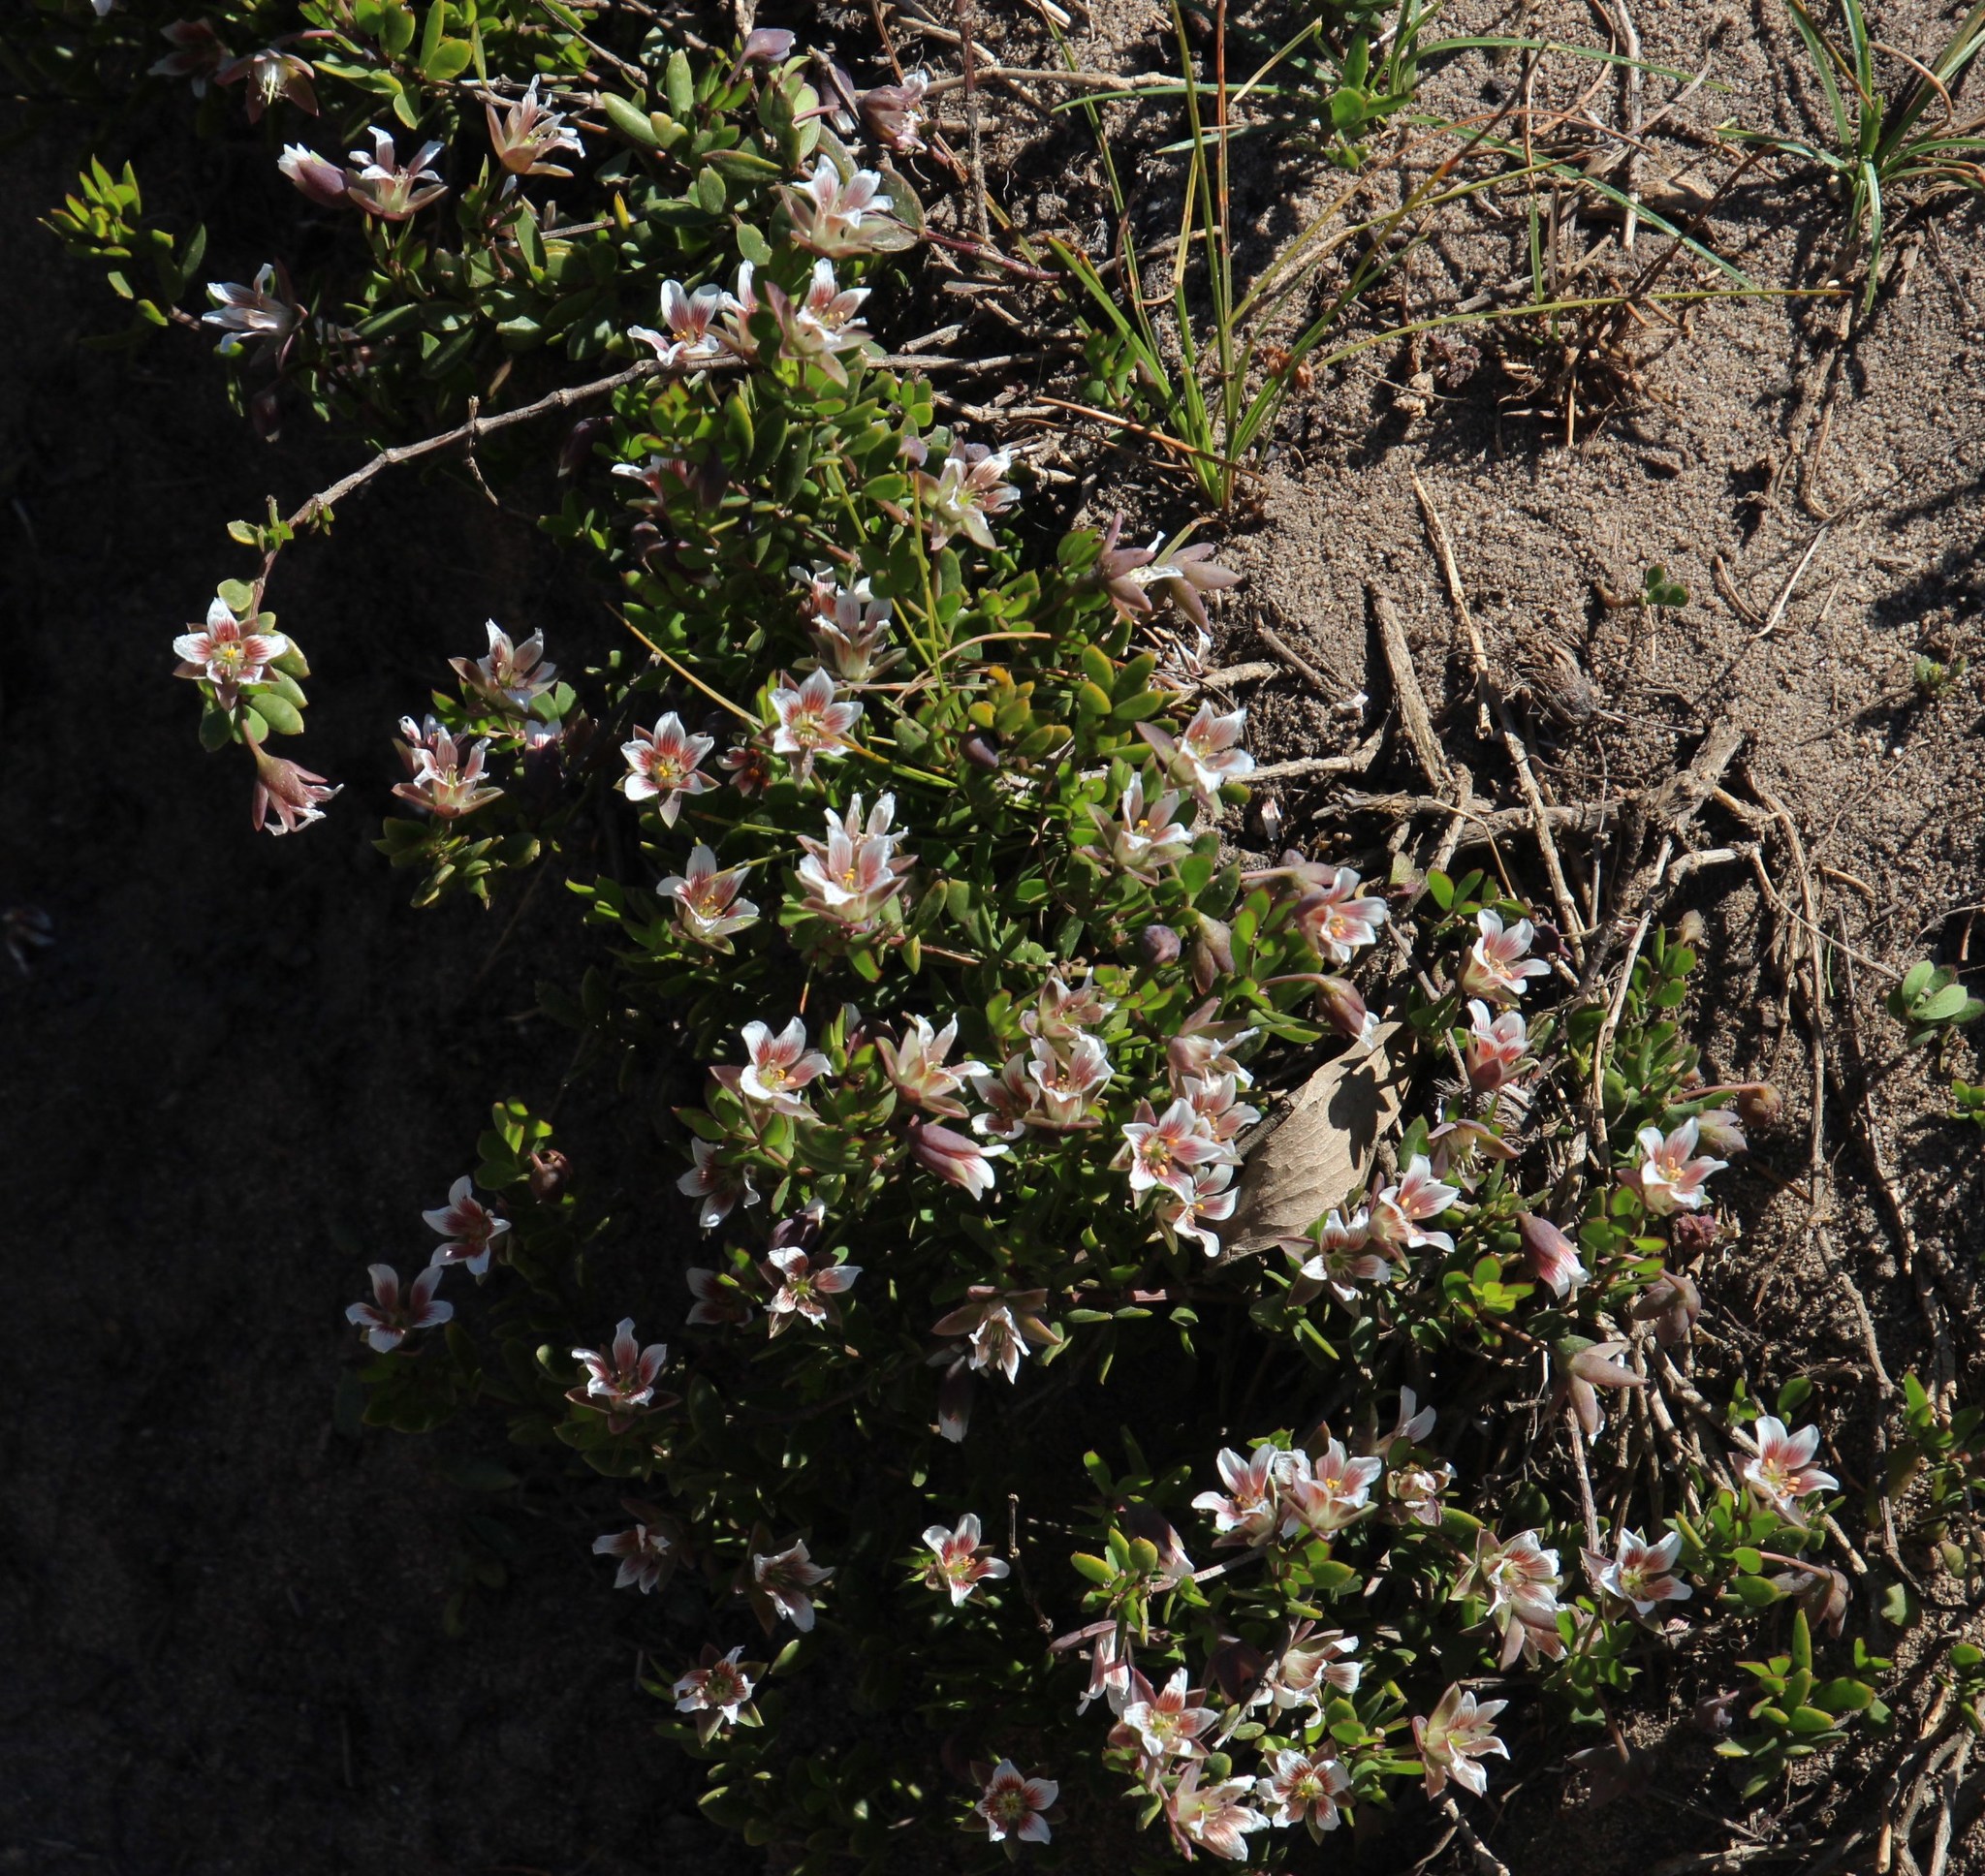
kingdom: Plantae
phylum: Tracheophyta
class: Magnoliopsida
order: Zygophyllales
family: Zygophyllaceae
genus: Roepera
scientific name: Roepera sessilifolia
